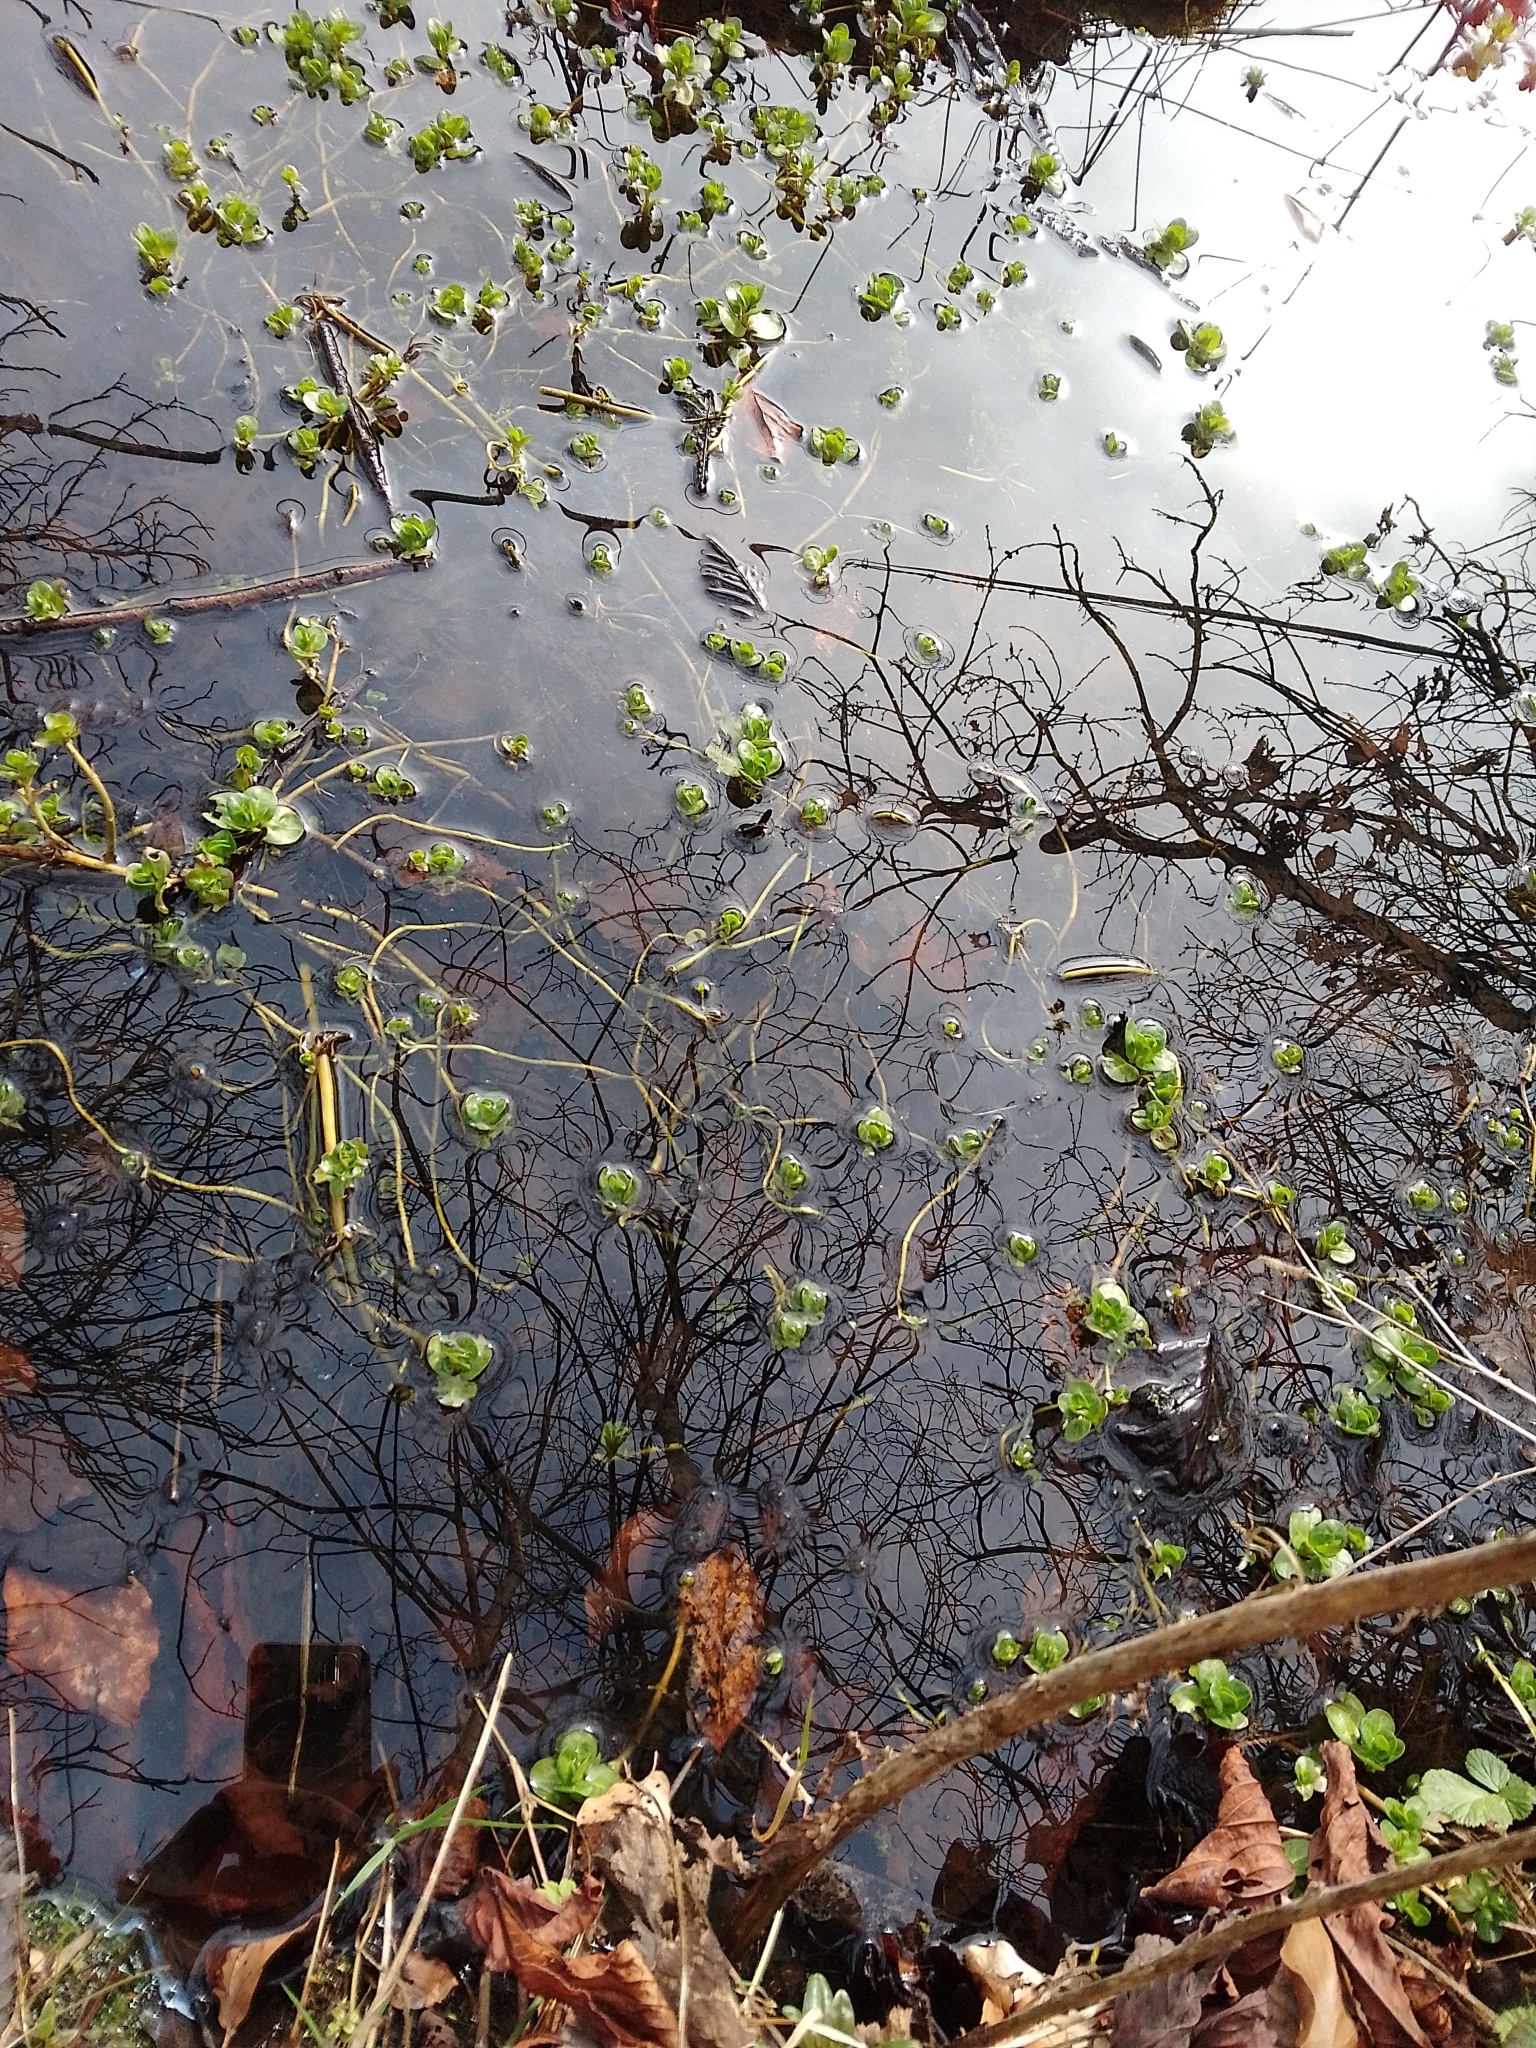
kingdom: Plantae
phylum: Tracheophyta
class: Magnoliopsida
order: Lamiales
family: Plantaginaceae
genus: Veronica
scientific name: Veronica beccabunga
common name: Brooklime
